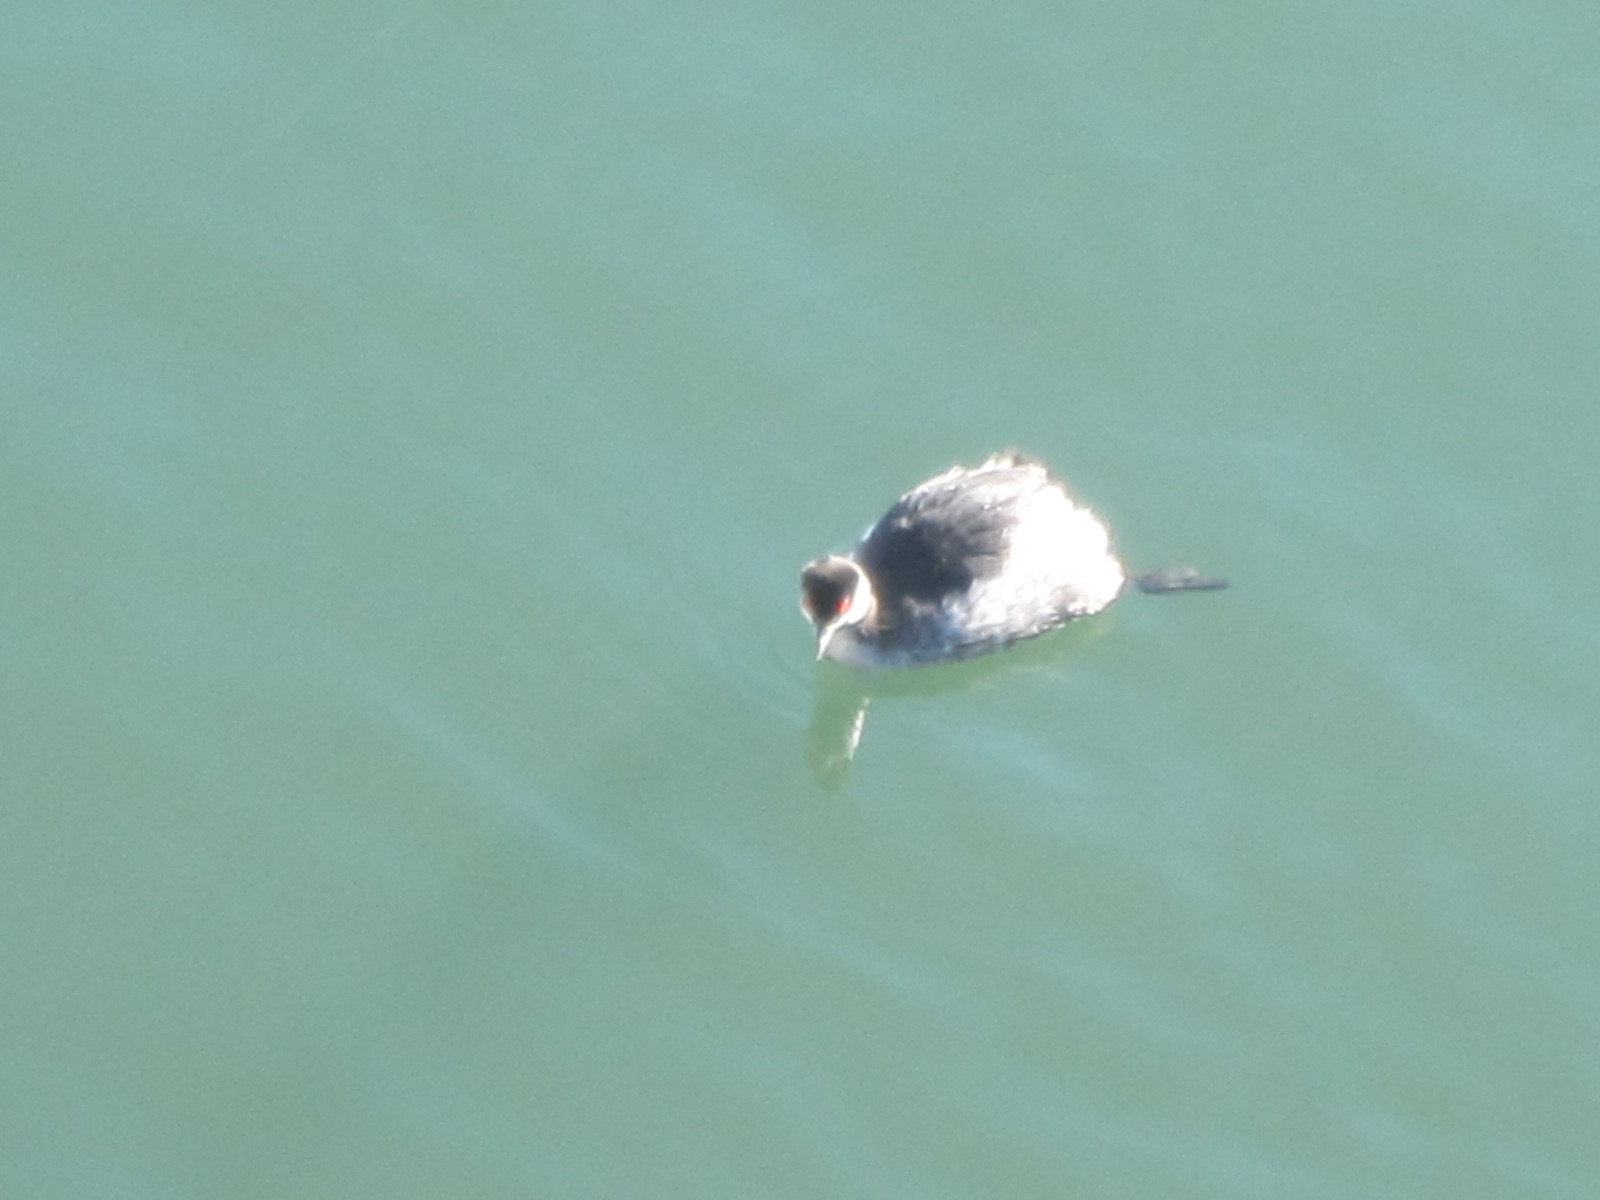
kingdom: Animalia
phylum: Chordata
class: Aves
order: Podicipediformes
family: Podicipedidae
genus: Podiceps
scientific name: Podiceps nigricollis
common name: Black-necked grebe
